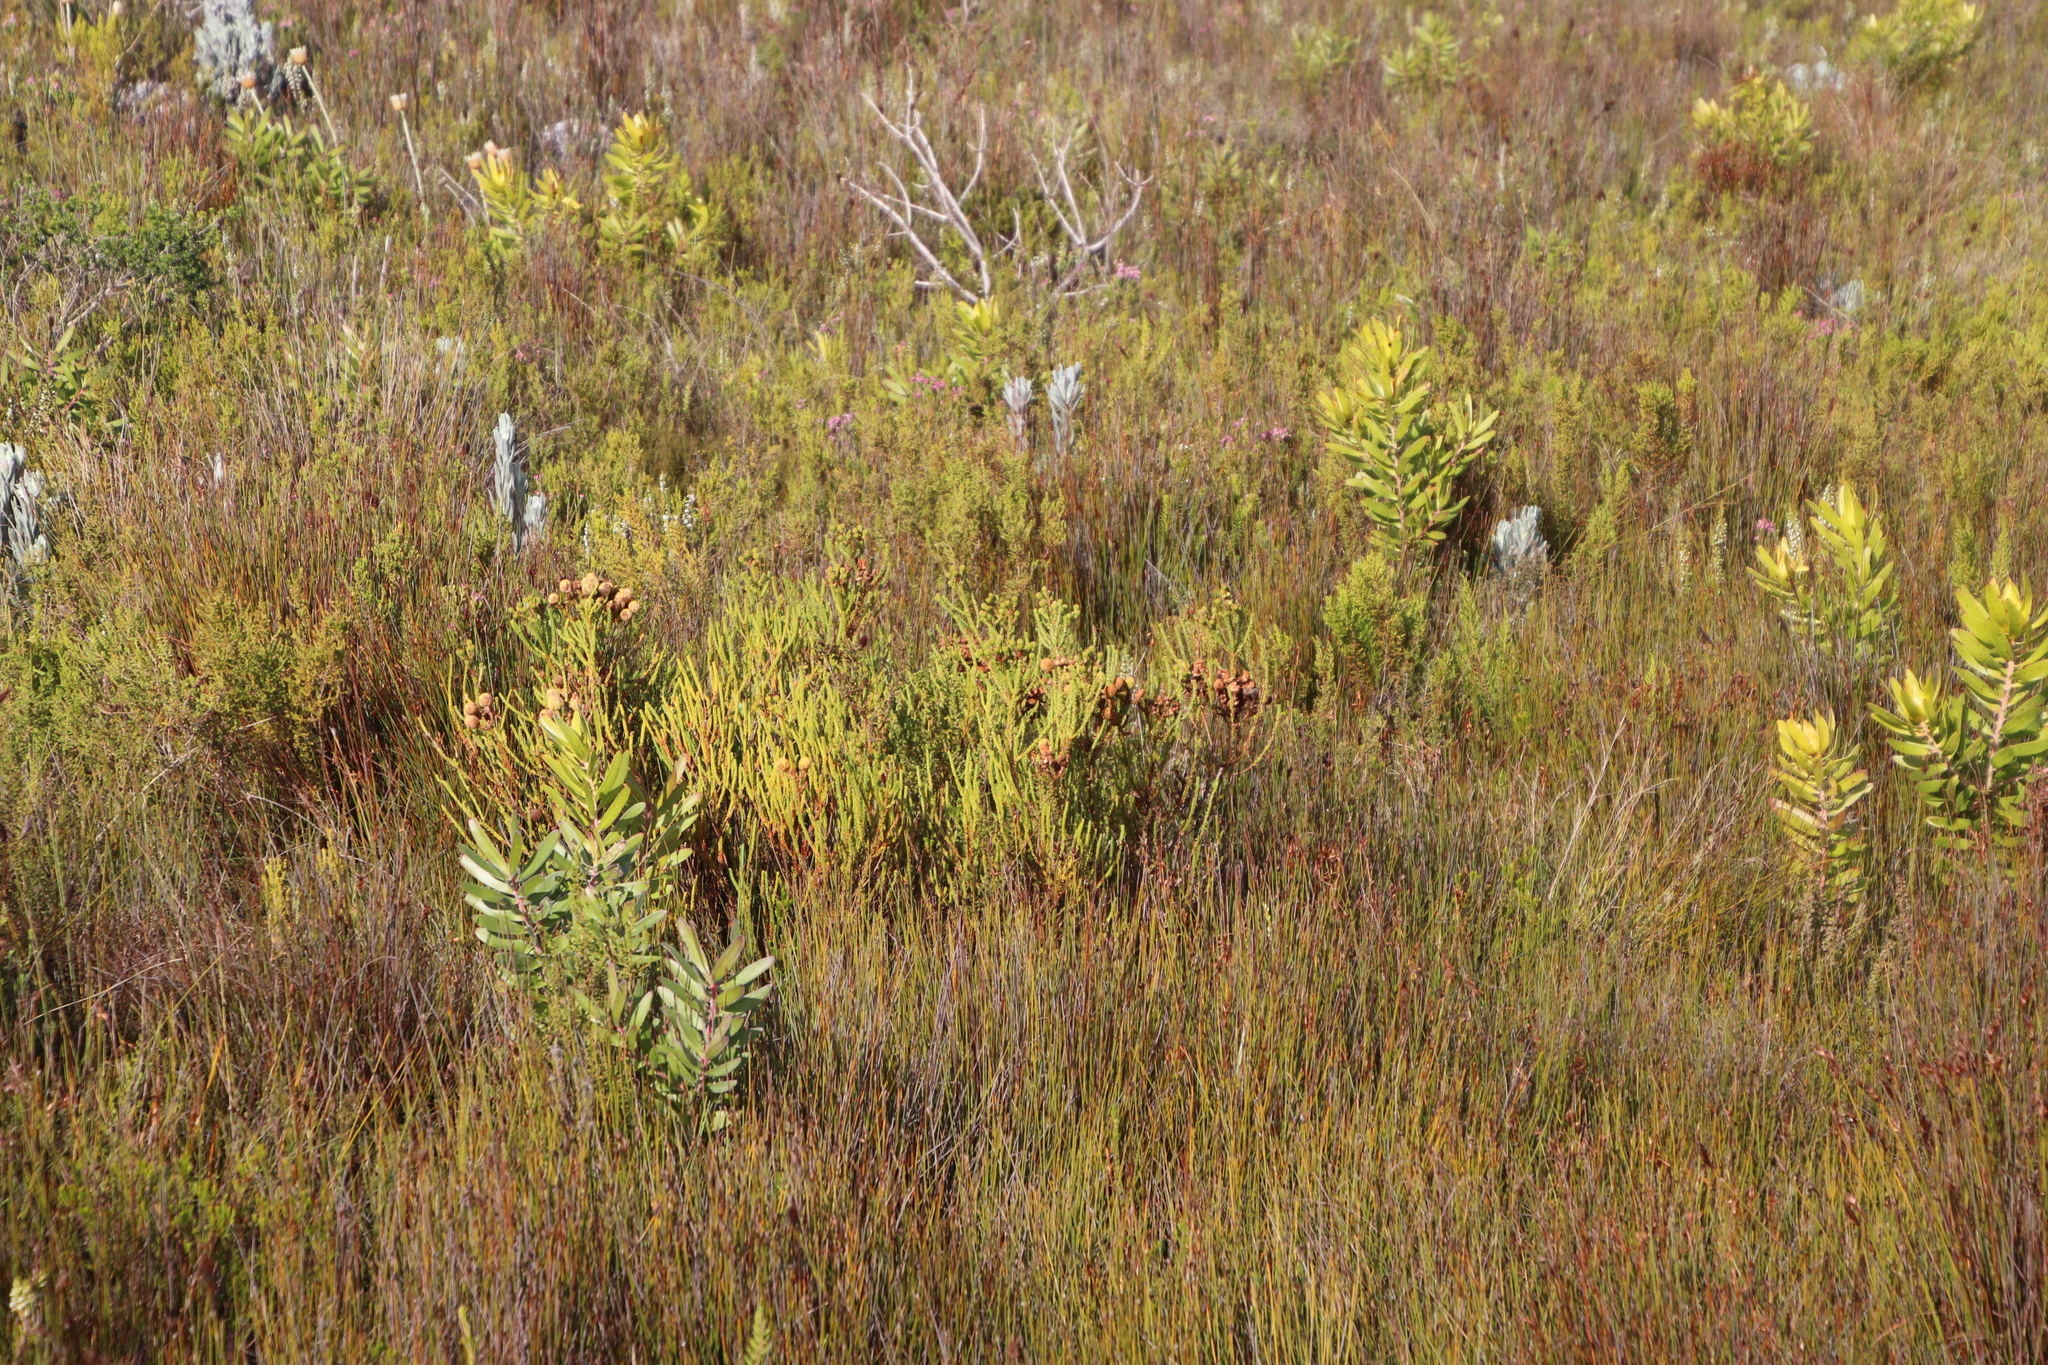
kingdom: Plantae
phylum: Tracheophyta
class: Magnoliopsida
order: Bruniales
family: Bruniaceae
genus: Berzelia
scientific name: Berzelia abrotanoides
